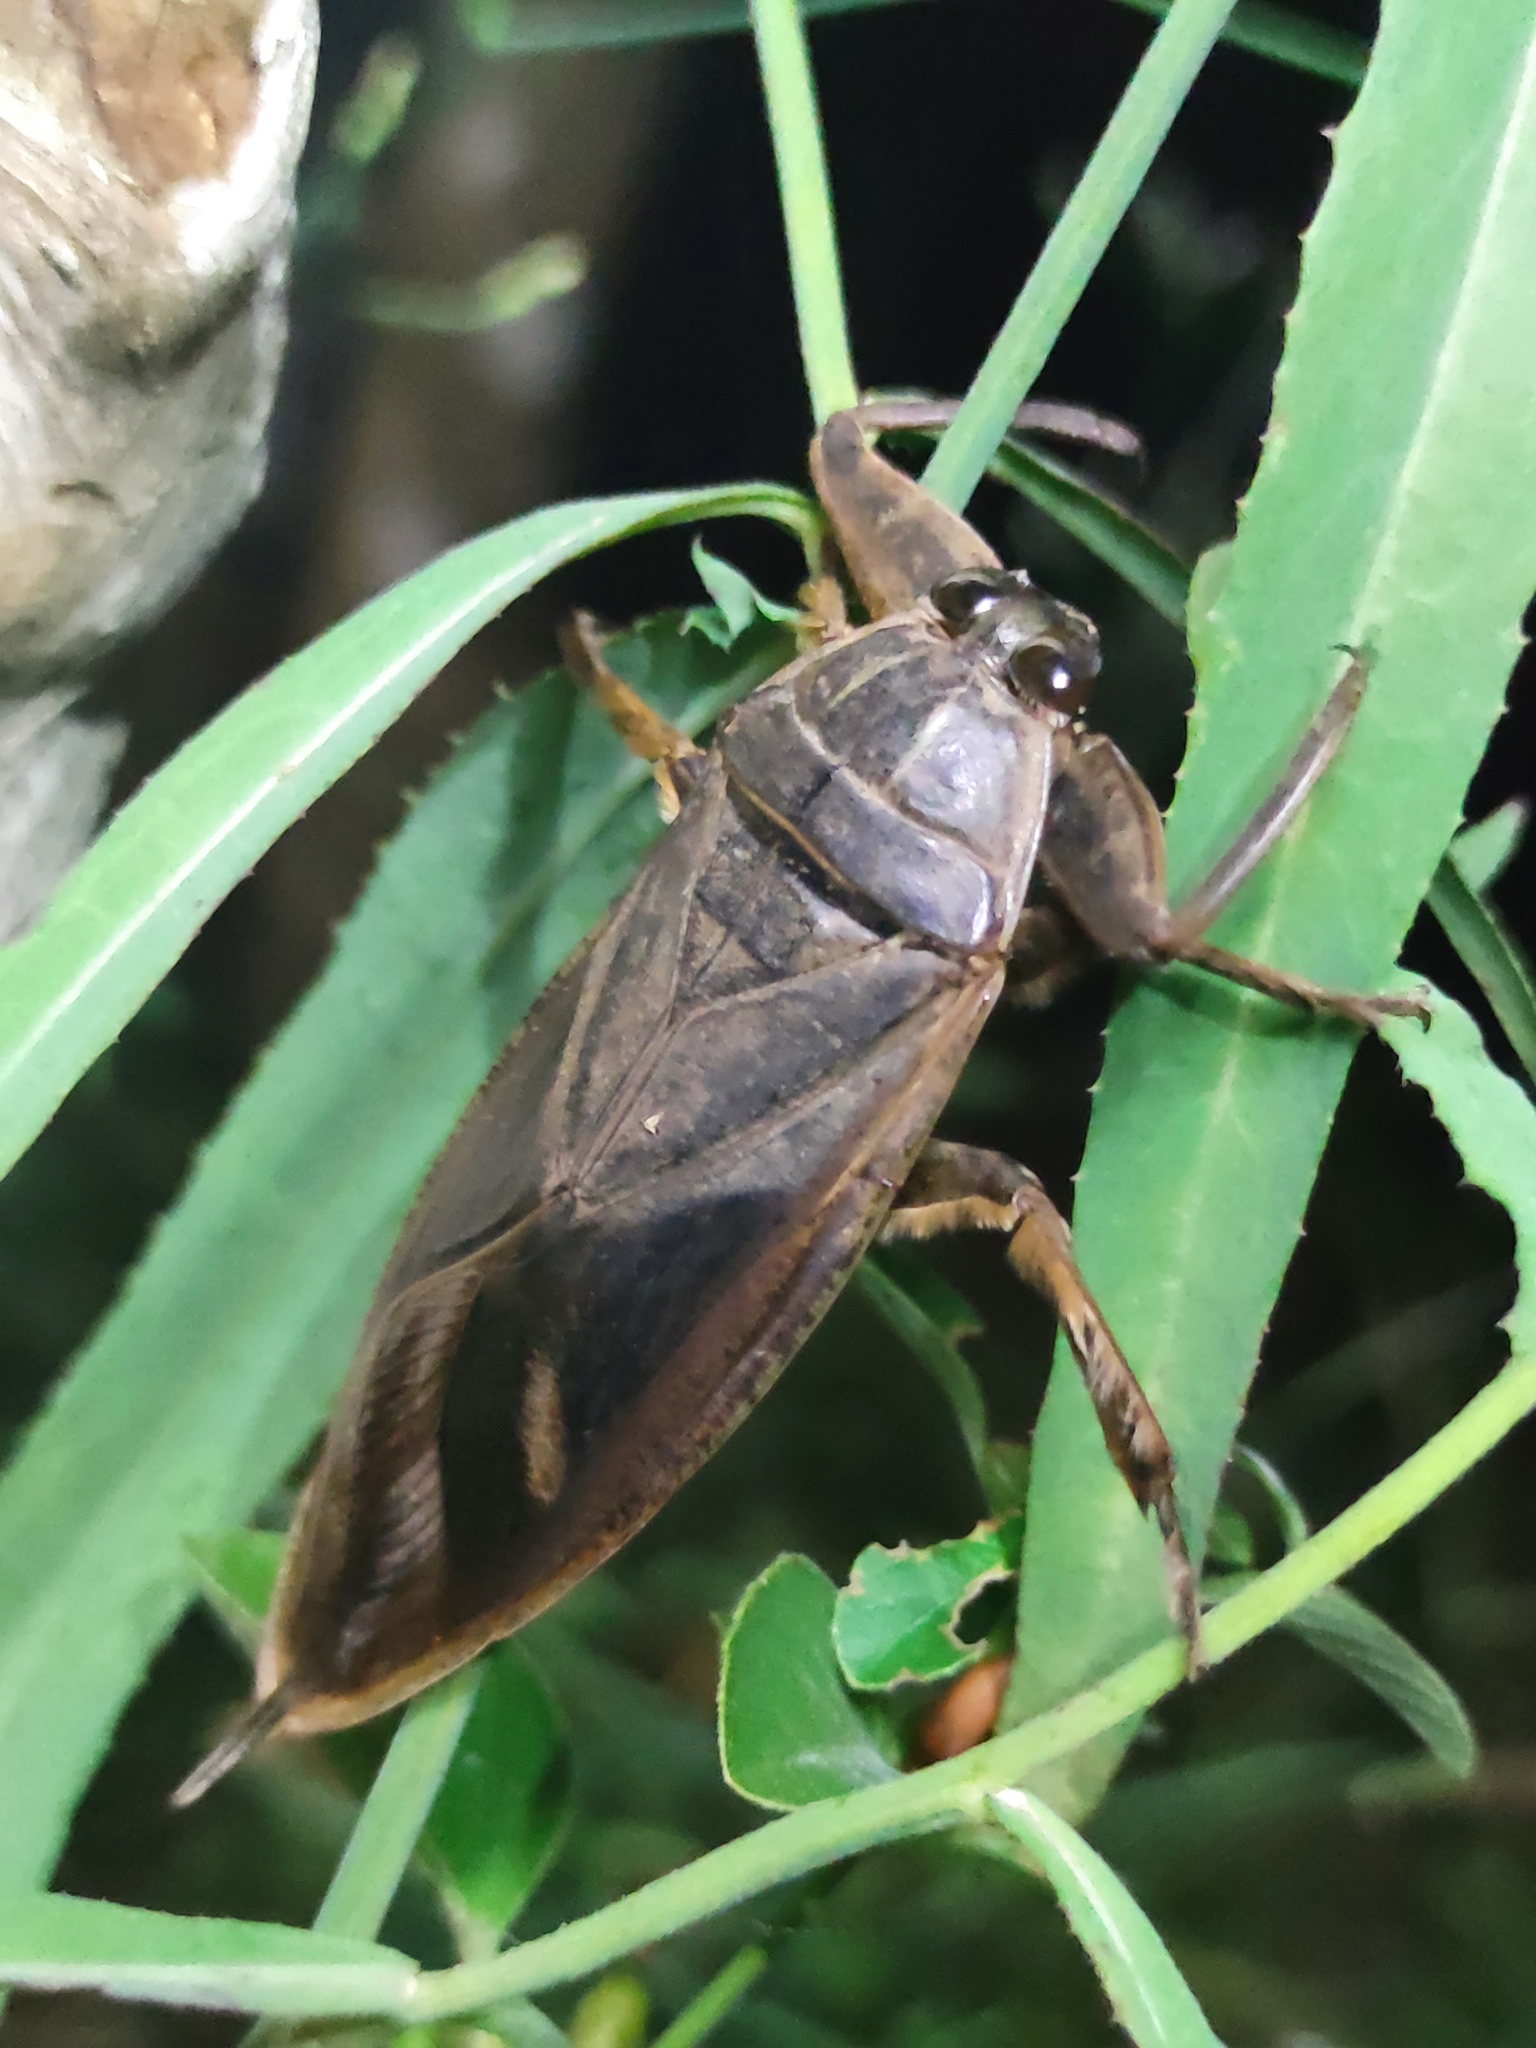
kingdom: Animalia
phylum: Arthropoda
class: Insecta
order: Hemiptera
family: Belostomatidae
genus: Lethocerus
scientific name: Lethocerus cordofanus
